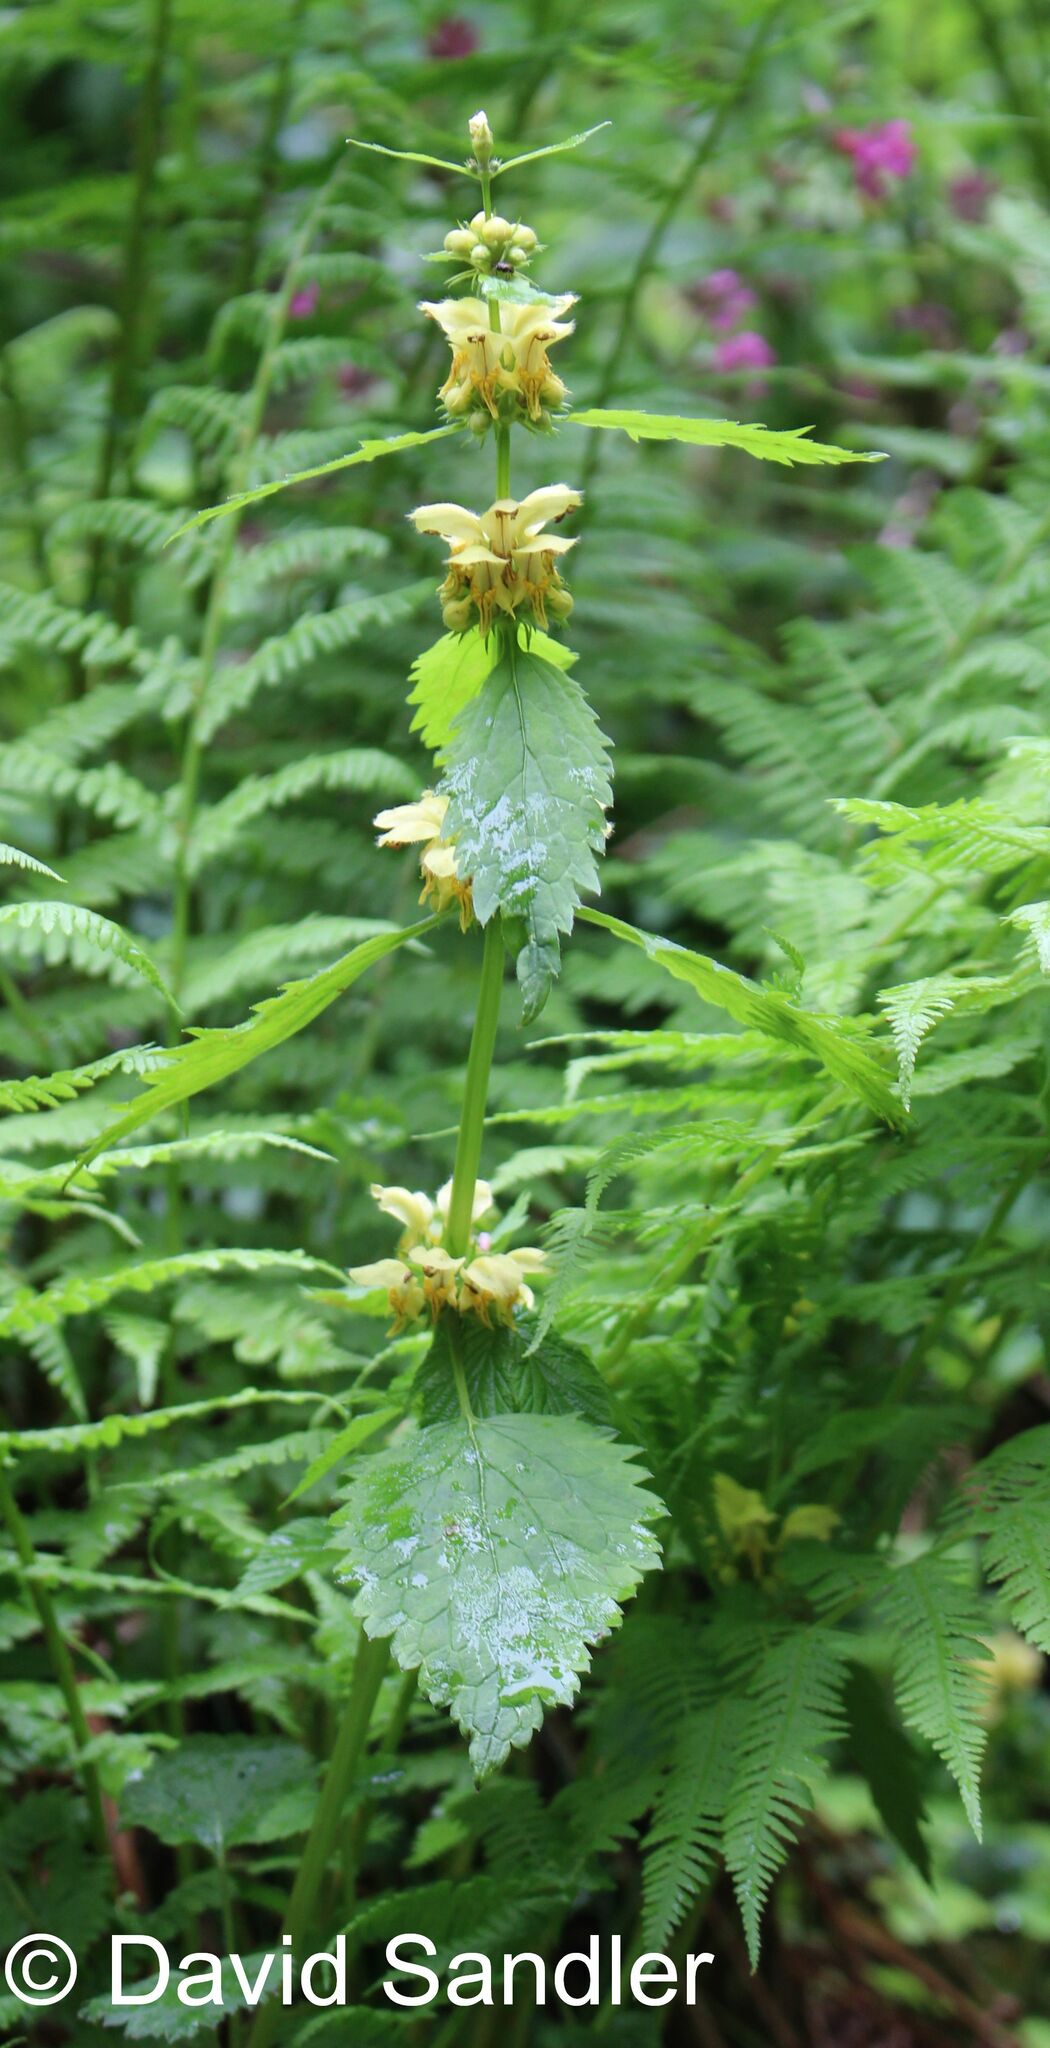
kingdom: Plantae
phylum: Tracheophyta
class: Magnoliopsida
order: Lamiales
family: Lamiaceae
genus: Lamium
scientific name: Lamium galeobdolon
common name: Yellow archangel
